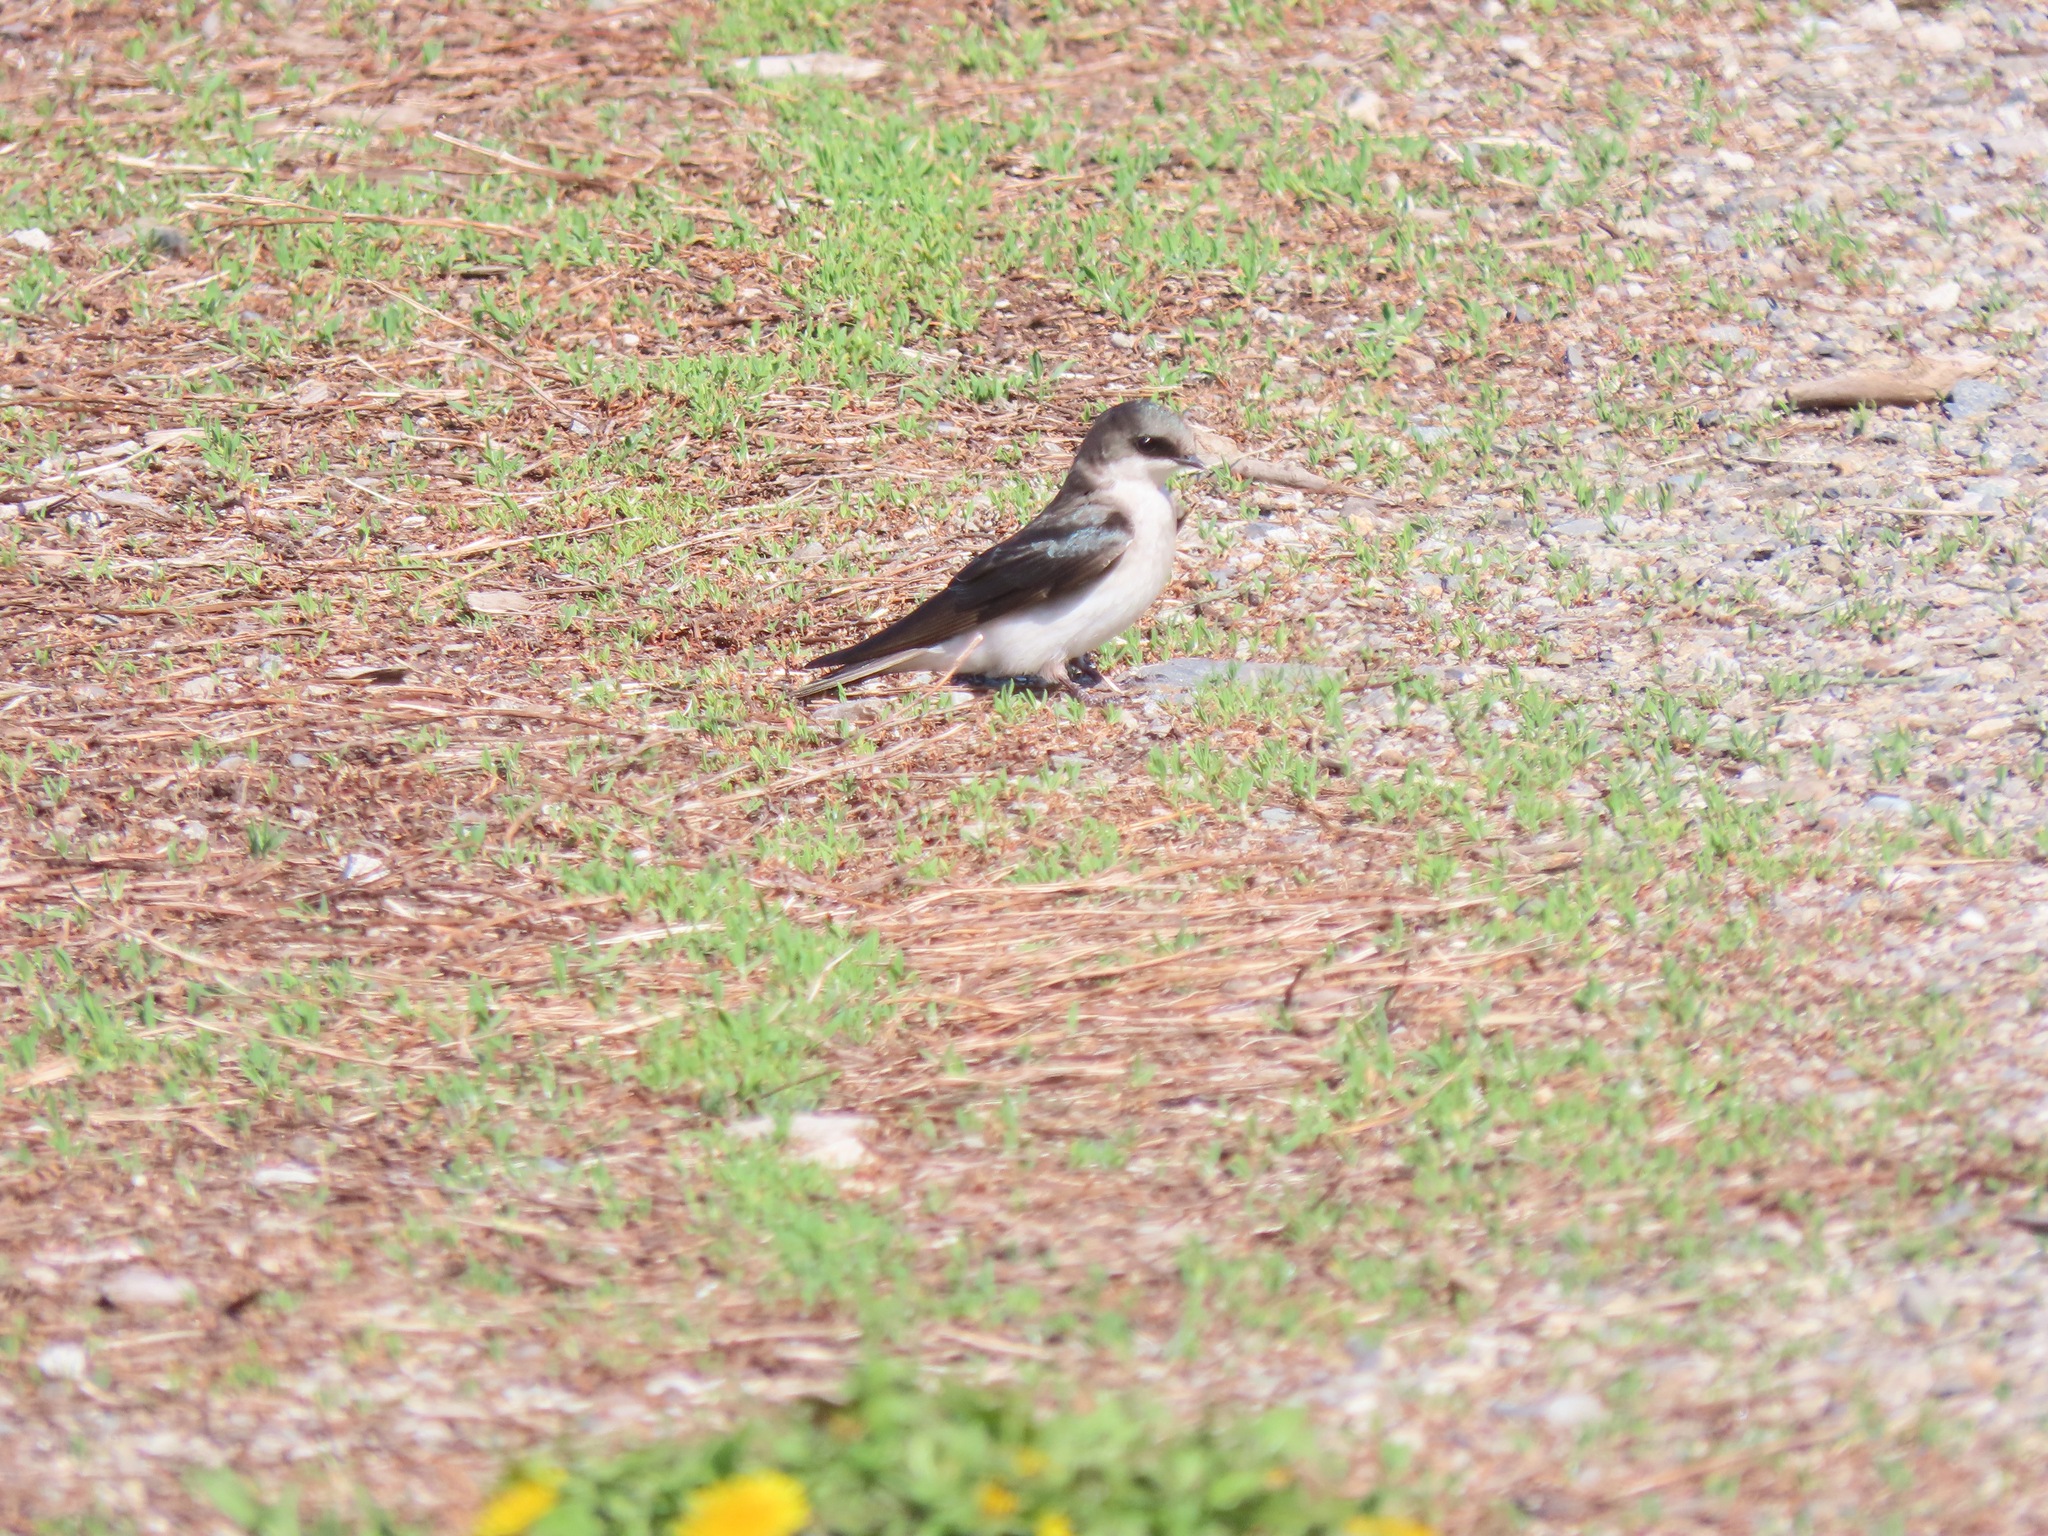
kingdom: Animalia
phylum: Chordata
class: Aves
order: Passeriformes
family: Hirundinidae
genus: Tachycineta
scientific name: Tachycineta bicolor
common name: Tree swallow
